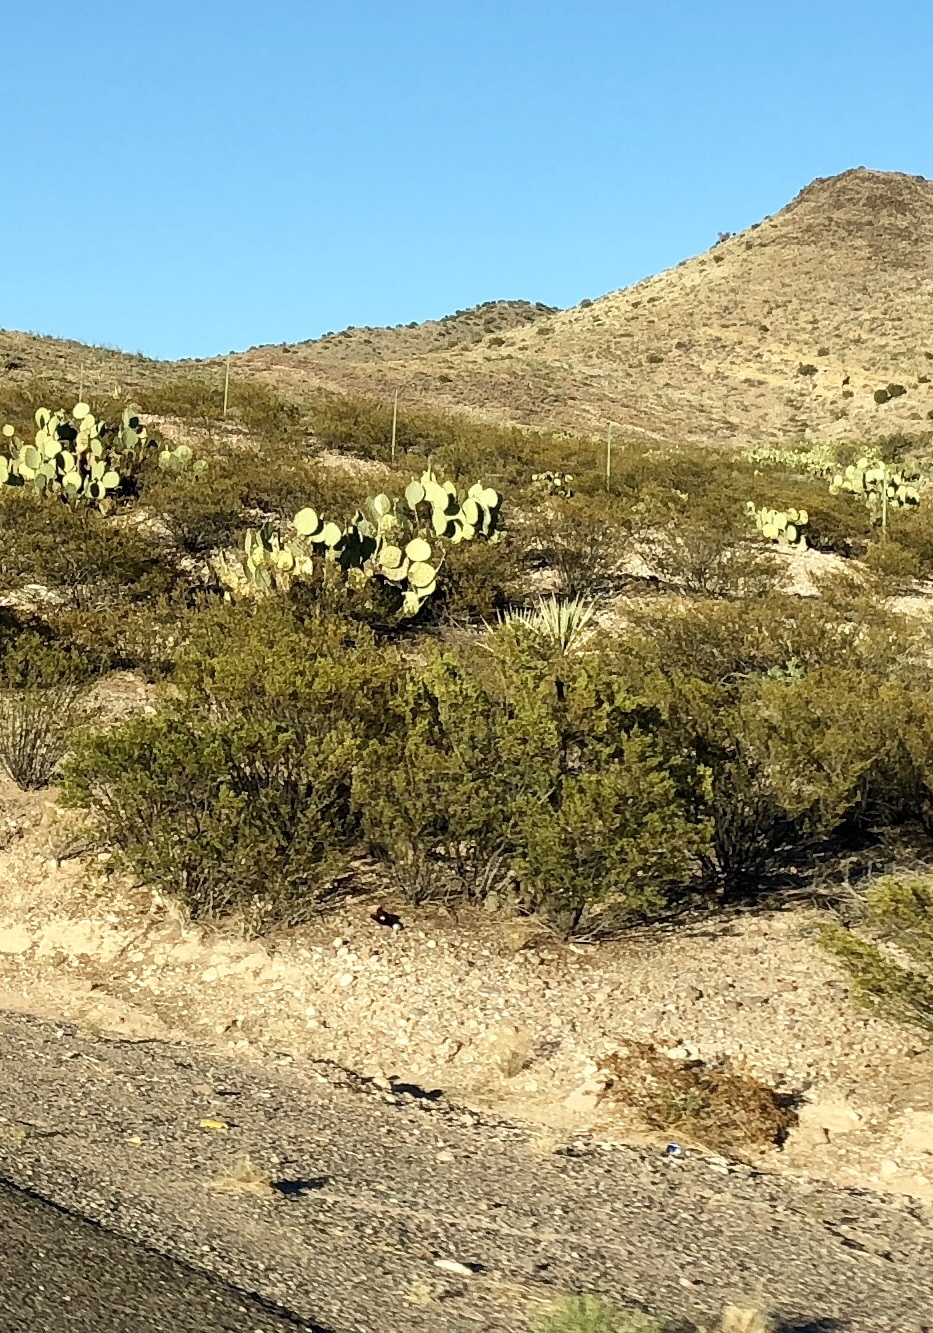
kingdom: Plantae
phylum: Tracheophyta
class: Magnoliopsida
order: Zygophyllales
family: Zygophyllaceae
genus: Larrea
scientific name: Larrea tridentata
